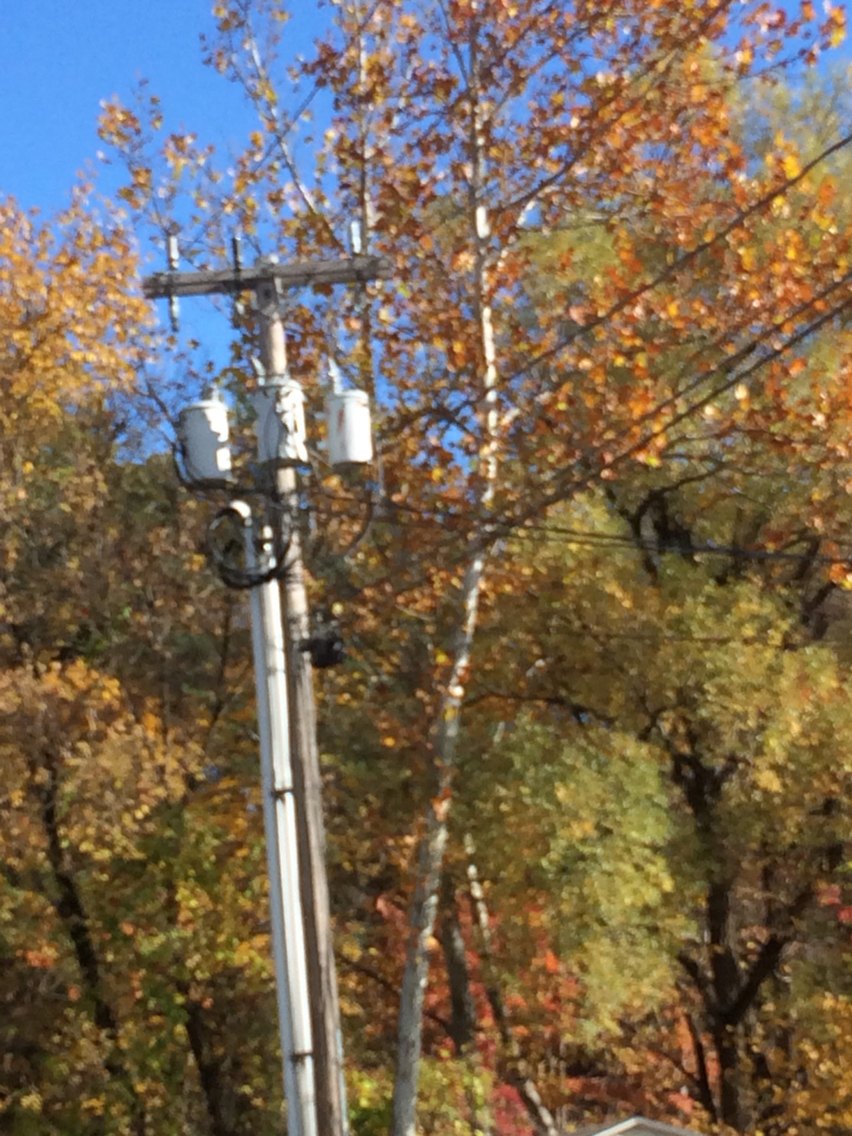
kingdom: Plantae
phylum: Tracheophyta
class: Magnoliopsida
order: Proteales
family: Platanaceae
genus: Platanus
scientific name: Platanus occidentalis
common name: American sycamore
